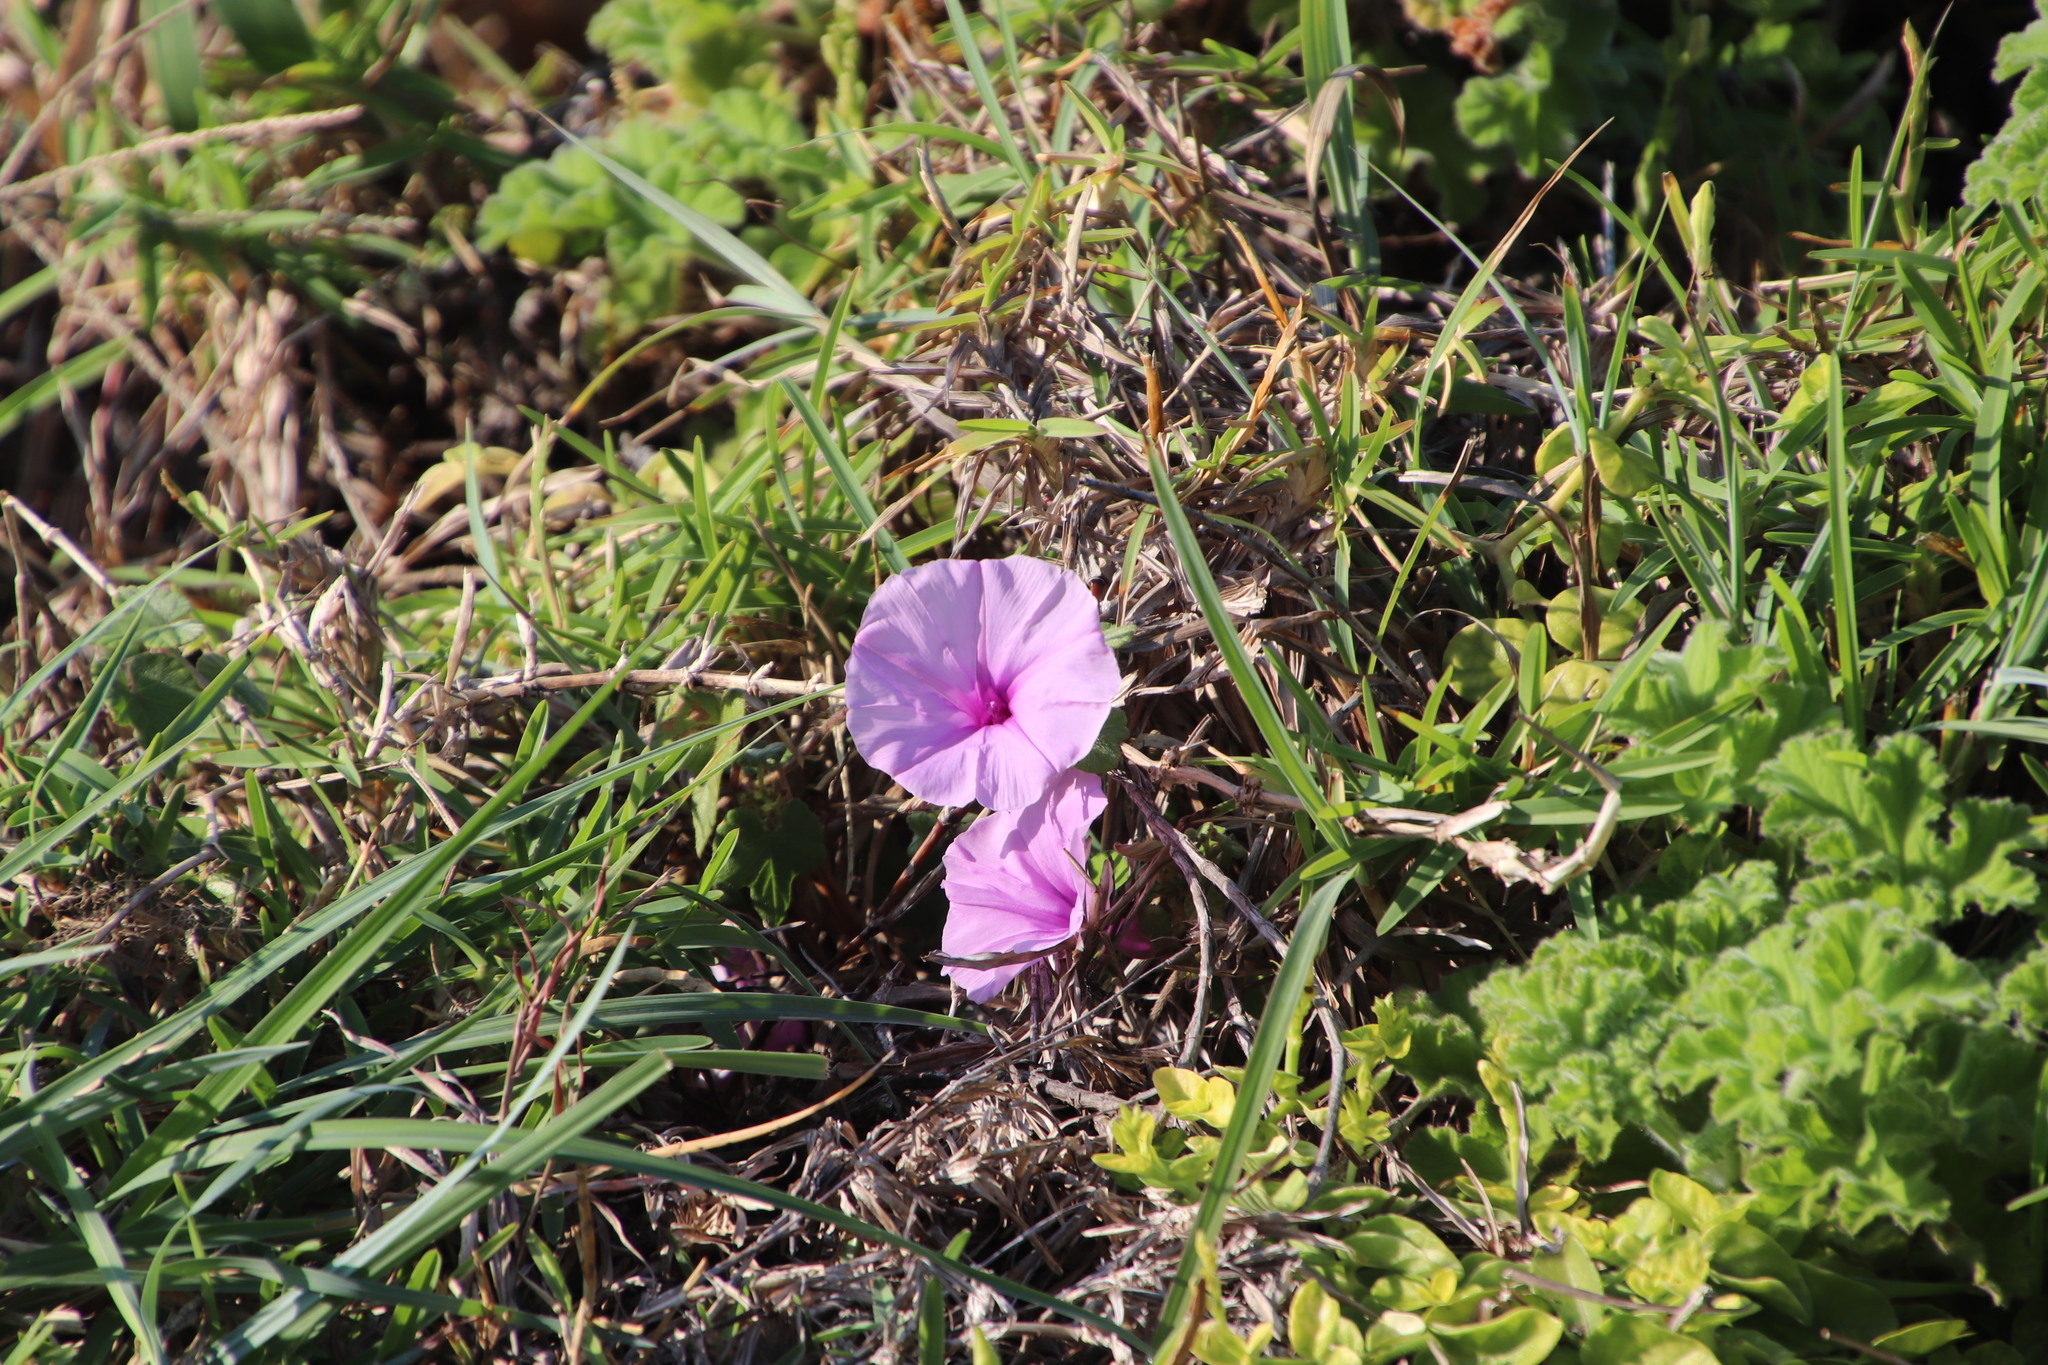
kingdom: Plantae
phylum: Tracheophyta
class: Magnoliopsida
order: Solanales
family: Convolvulaceae
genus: Ipomoea
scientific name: Ipomoea ficifolia
